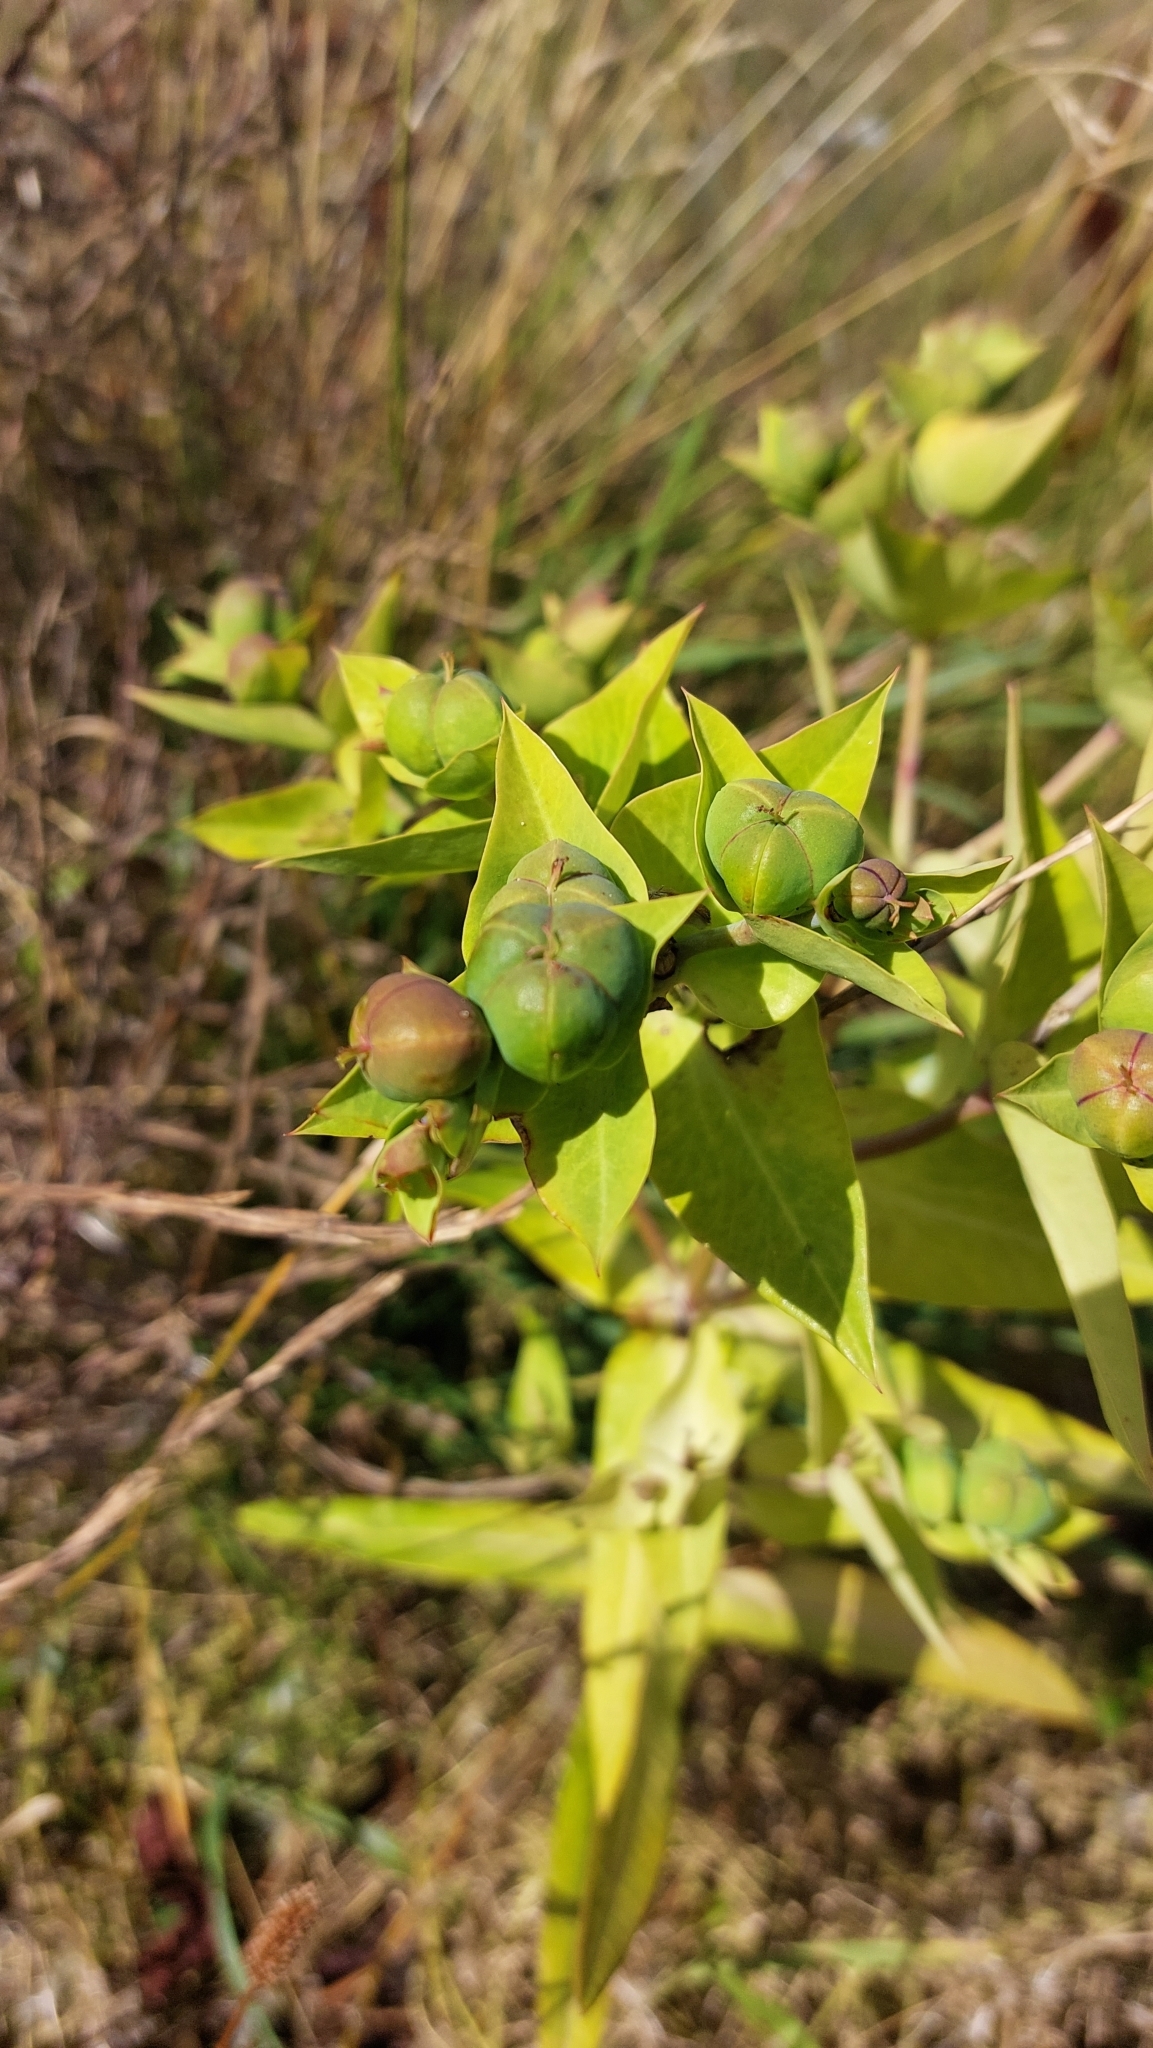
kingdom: Plantae
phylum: Tracheophyta
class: Magnoliopsida
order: Malpighiales
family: Euphorbiaceae
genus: Euphorbia
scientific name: Euphorbia lathyris
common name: Caper spurge
